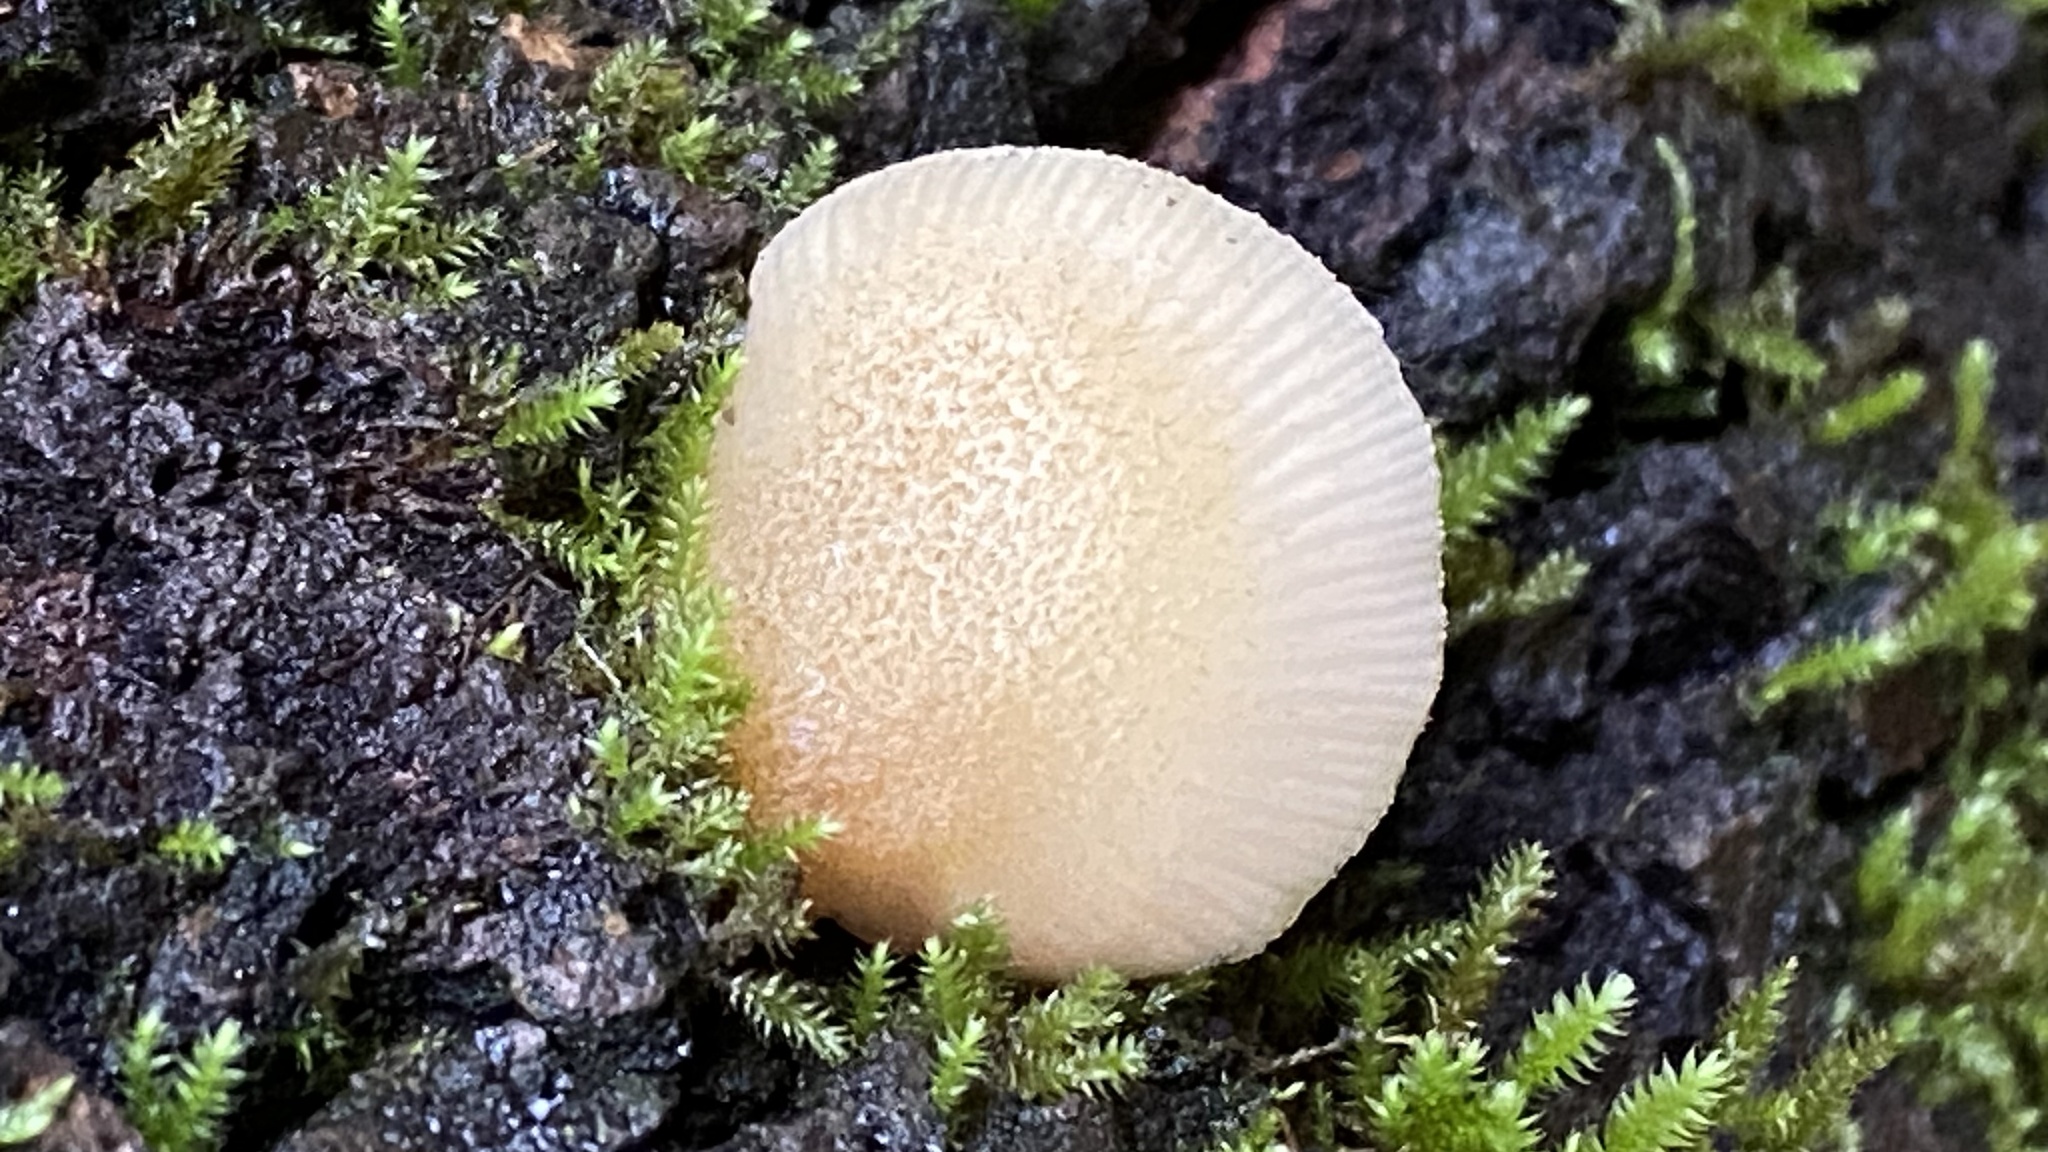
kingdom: Fungi
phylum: Basidiomycota
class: Agaricomycetes
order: Agaricales
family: Crepidotaceae
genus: Crepidotus
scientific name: Crepidotus mollis
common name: Peeling oysterling
